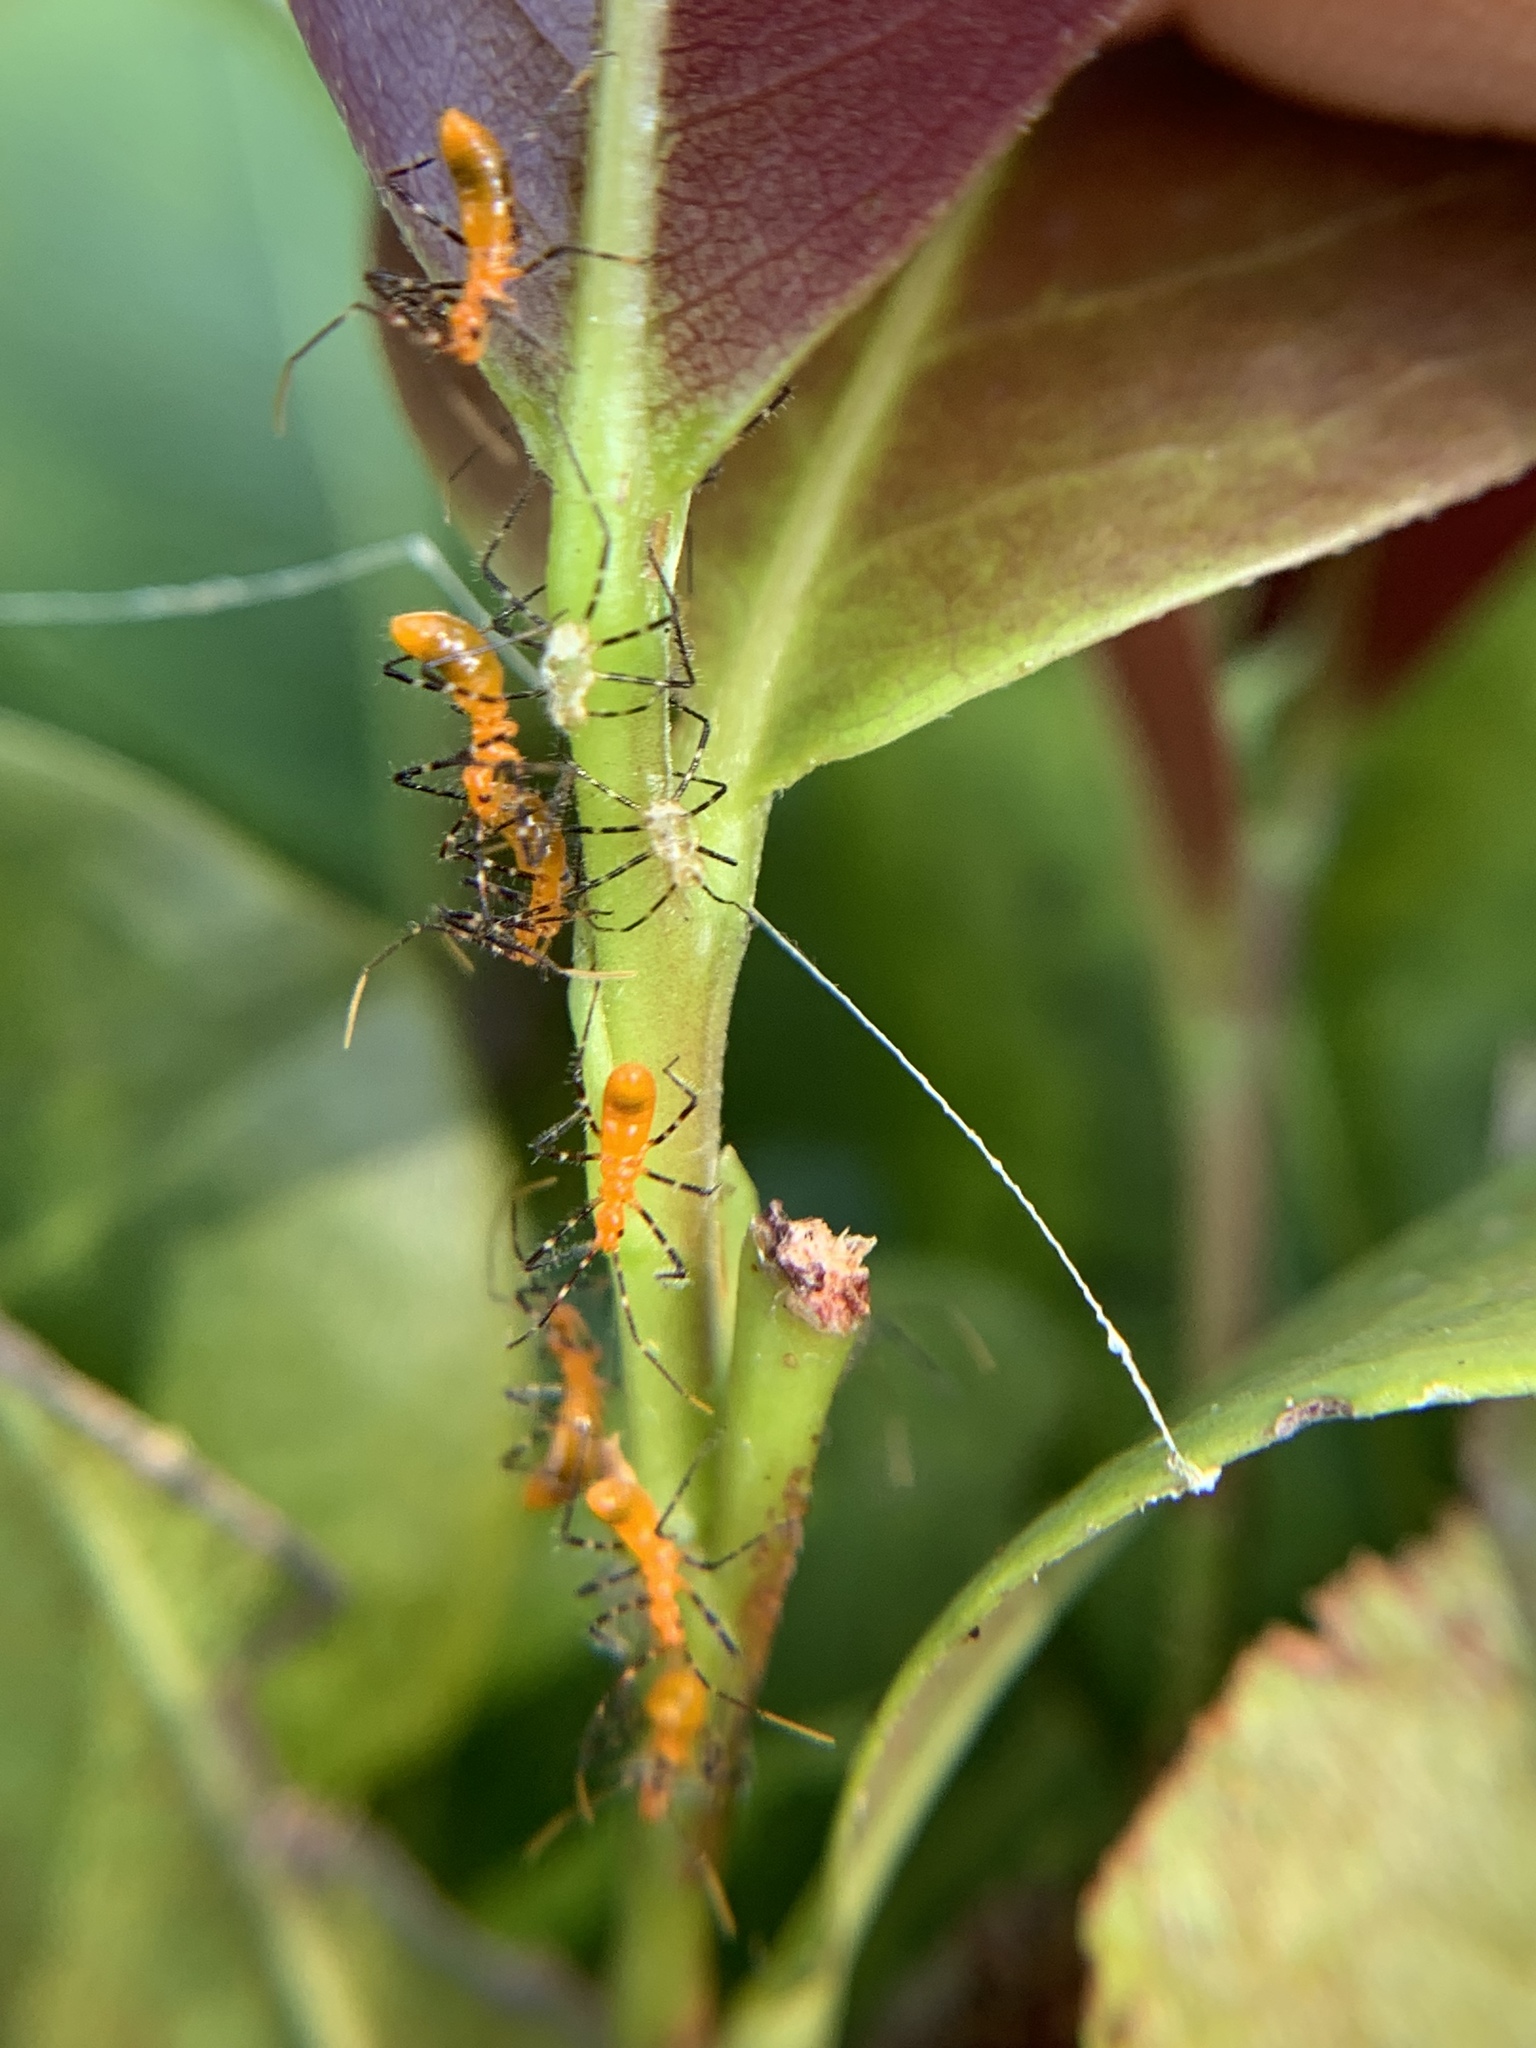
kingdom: Animalia
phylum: Arthropoda
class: Insecta
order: Hemiptera
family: Reduviidae
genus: Zelus
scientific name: Zelus longipes
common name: Milkweed assassin bug
